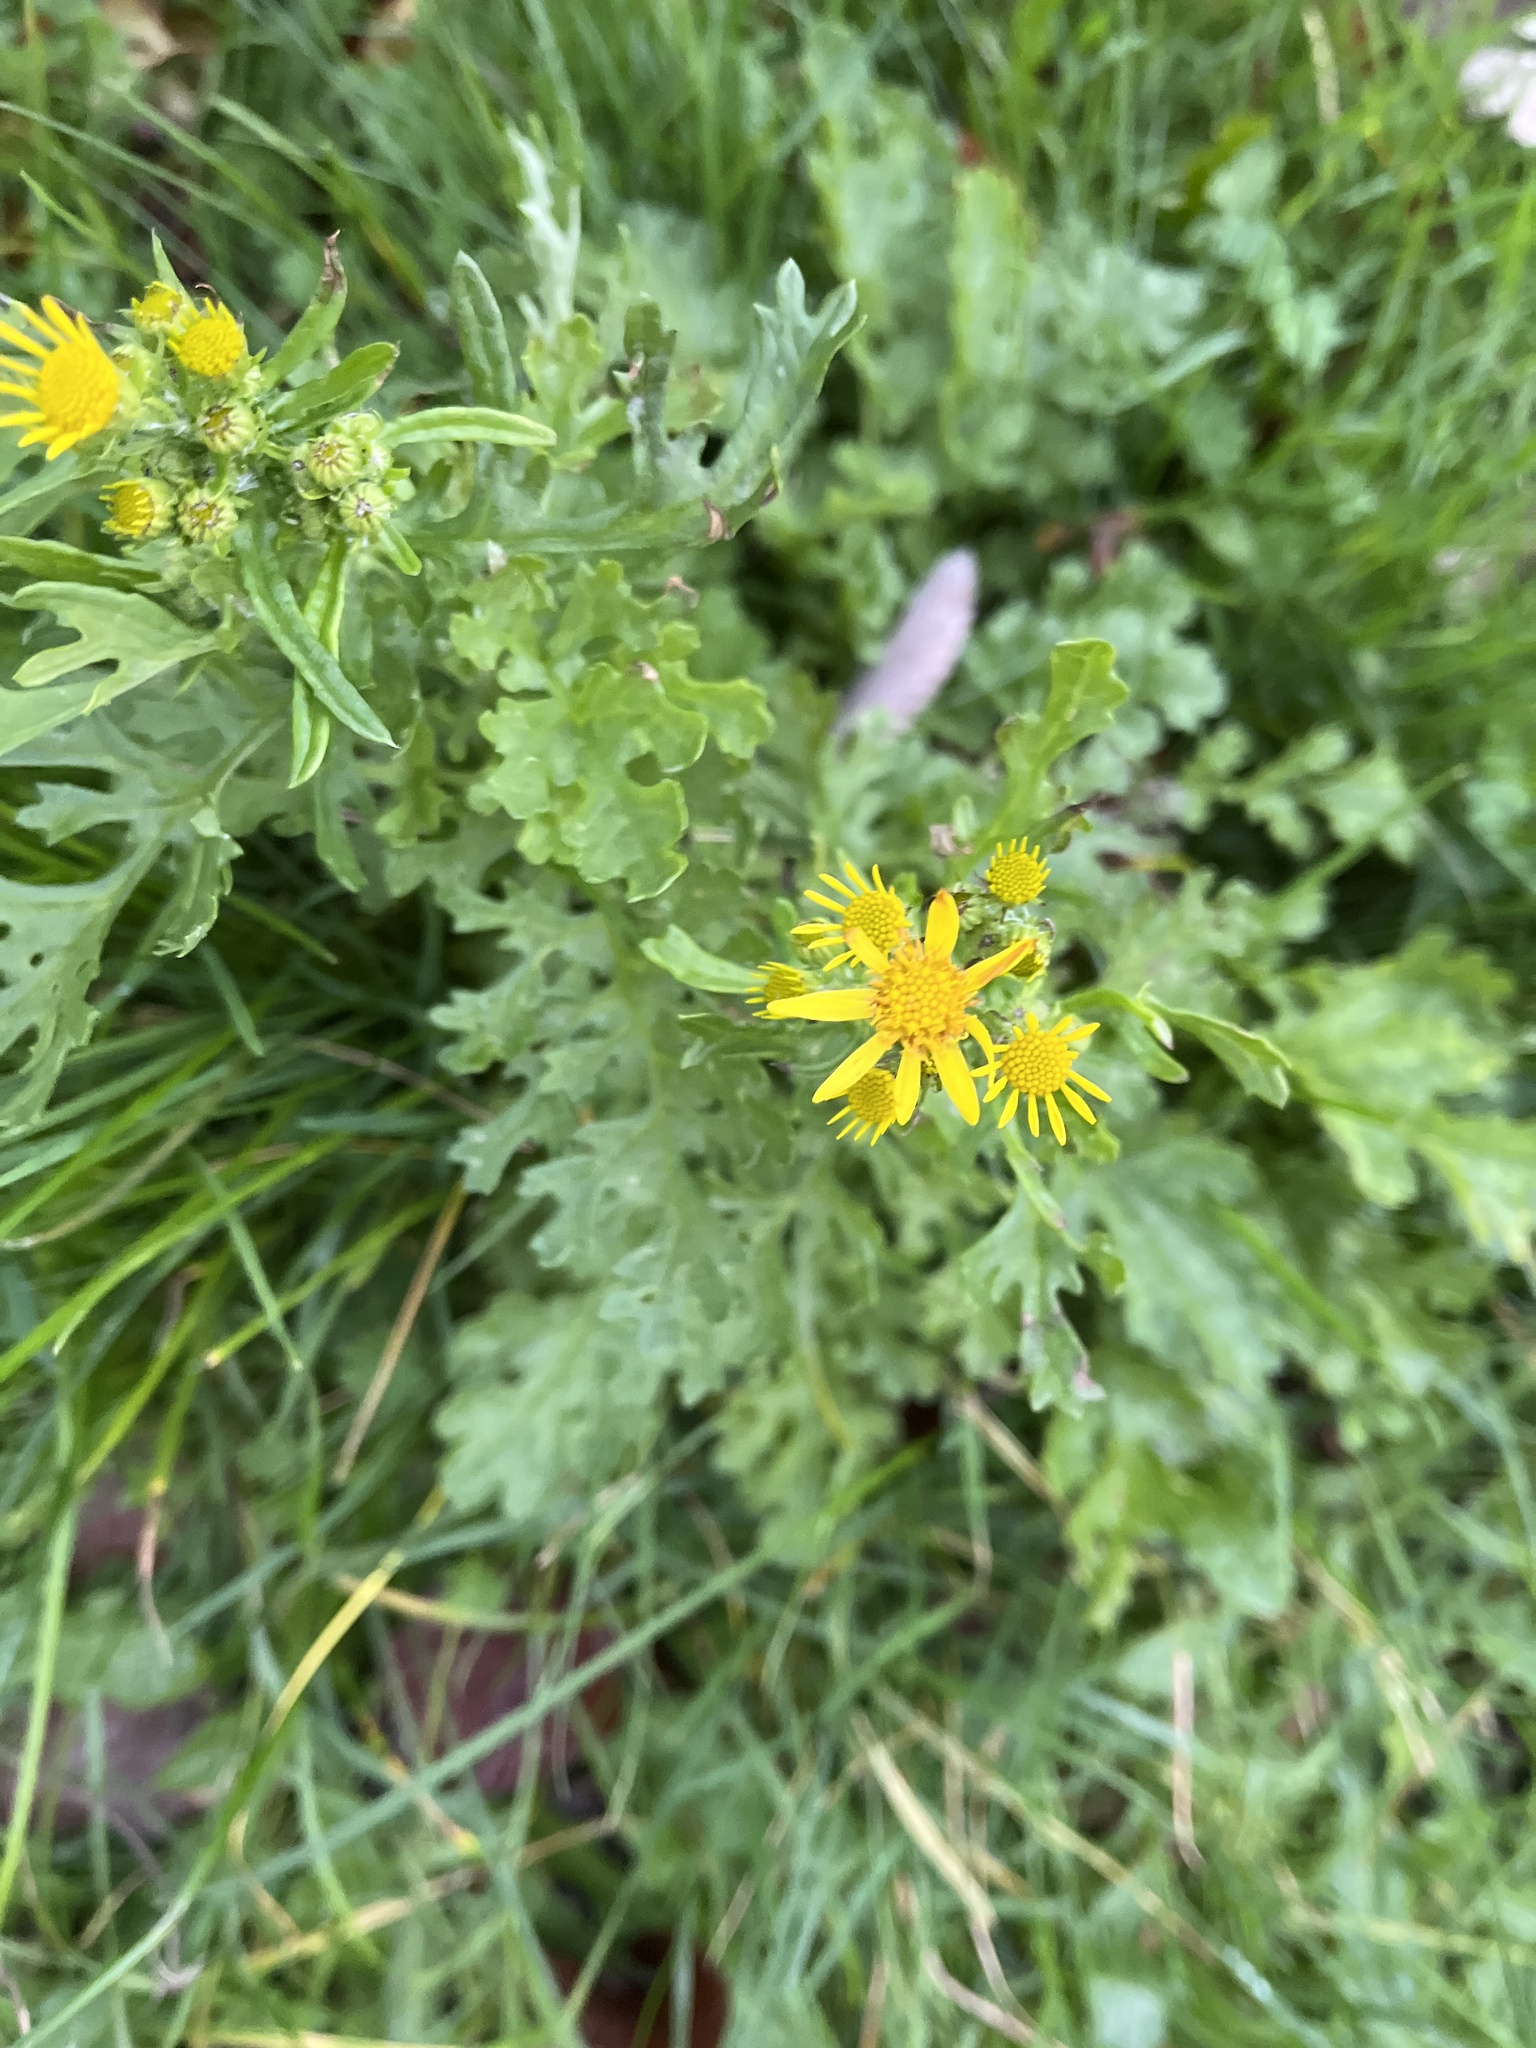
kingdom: Plantae
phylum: Tracheophyta
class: Magnoliopsida
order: Asterales
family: Asteraceae
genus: Jacobaea
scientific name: Jacobaea vulgaris
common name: Stinking willie
